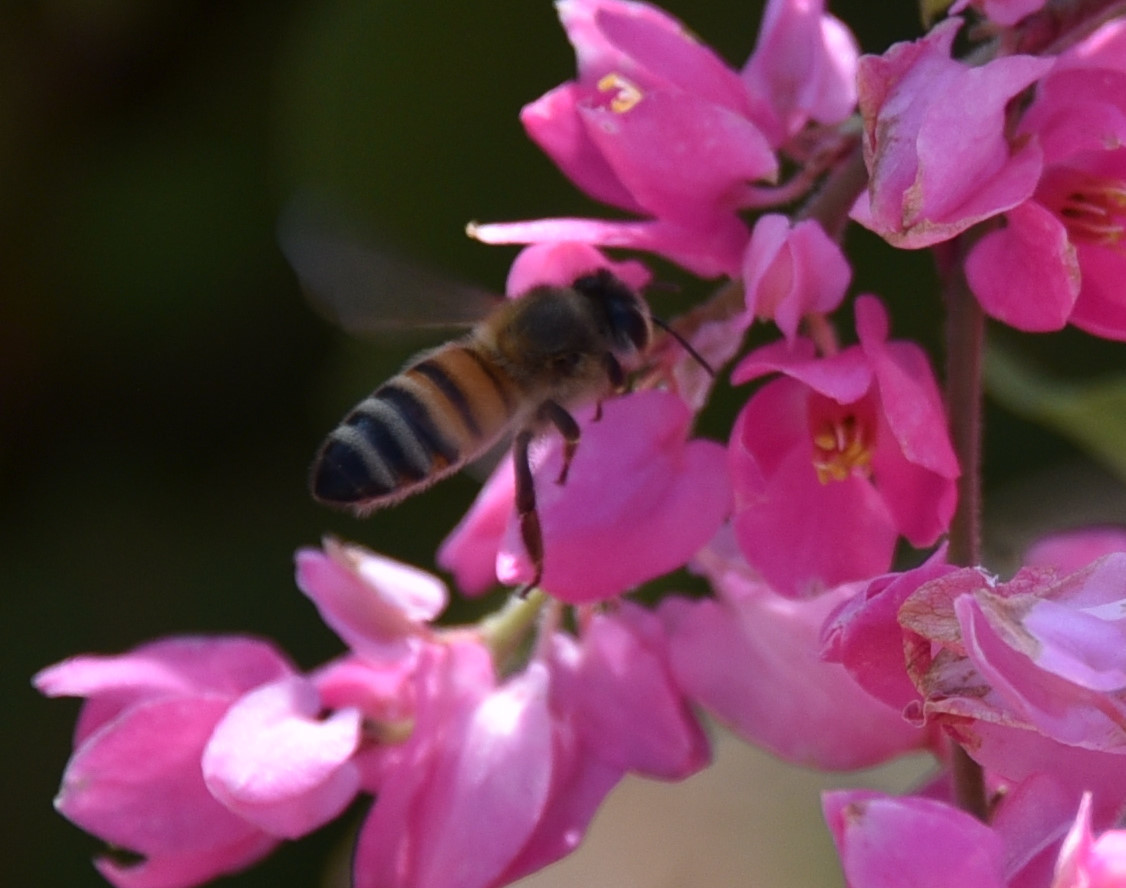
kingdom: Animalia
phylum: Arthropoda
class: Insecta
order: Hymenoptera
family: Apidae
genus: Apis
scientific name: Apis mellifera
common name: Honey bee
